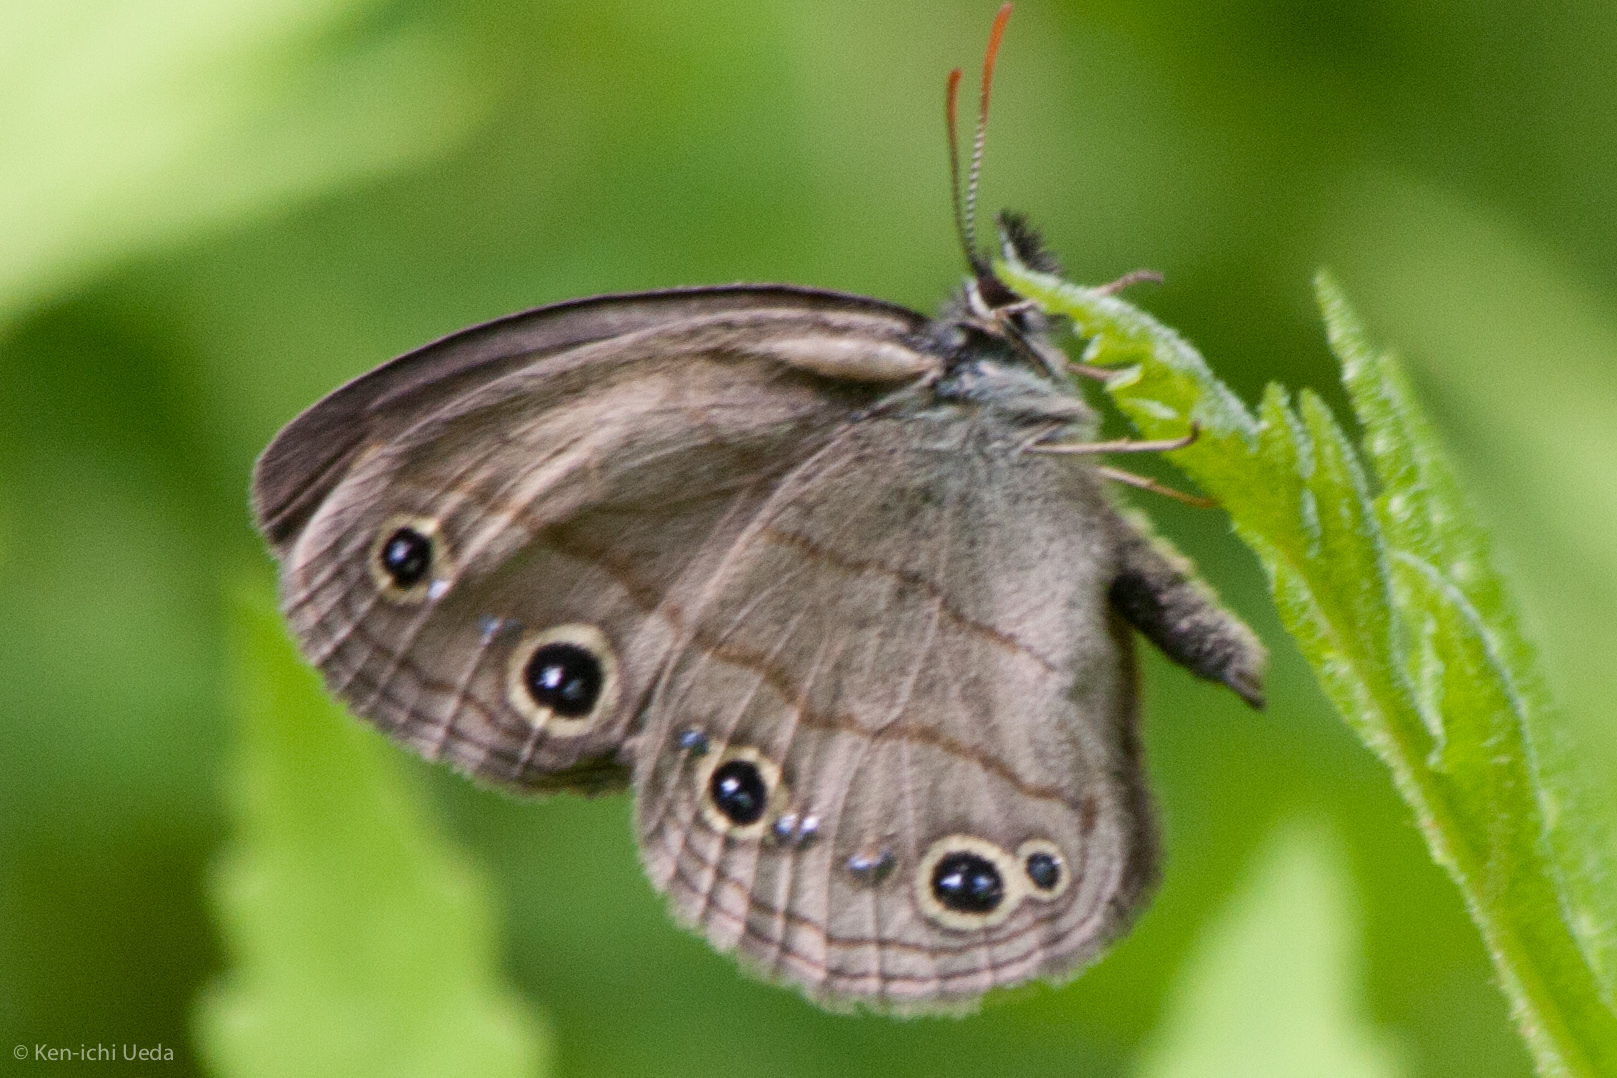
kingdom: Animalia
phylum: Arthropoda
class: Insecta
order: Lepidoptera
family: Nymphalidae
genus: Euptychia
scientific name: Euptychia cymela
